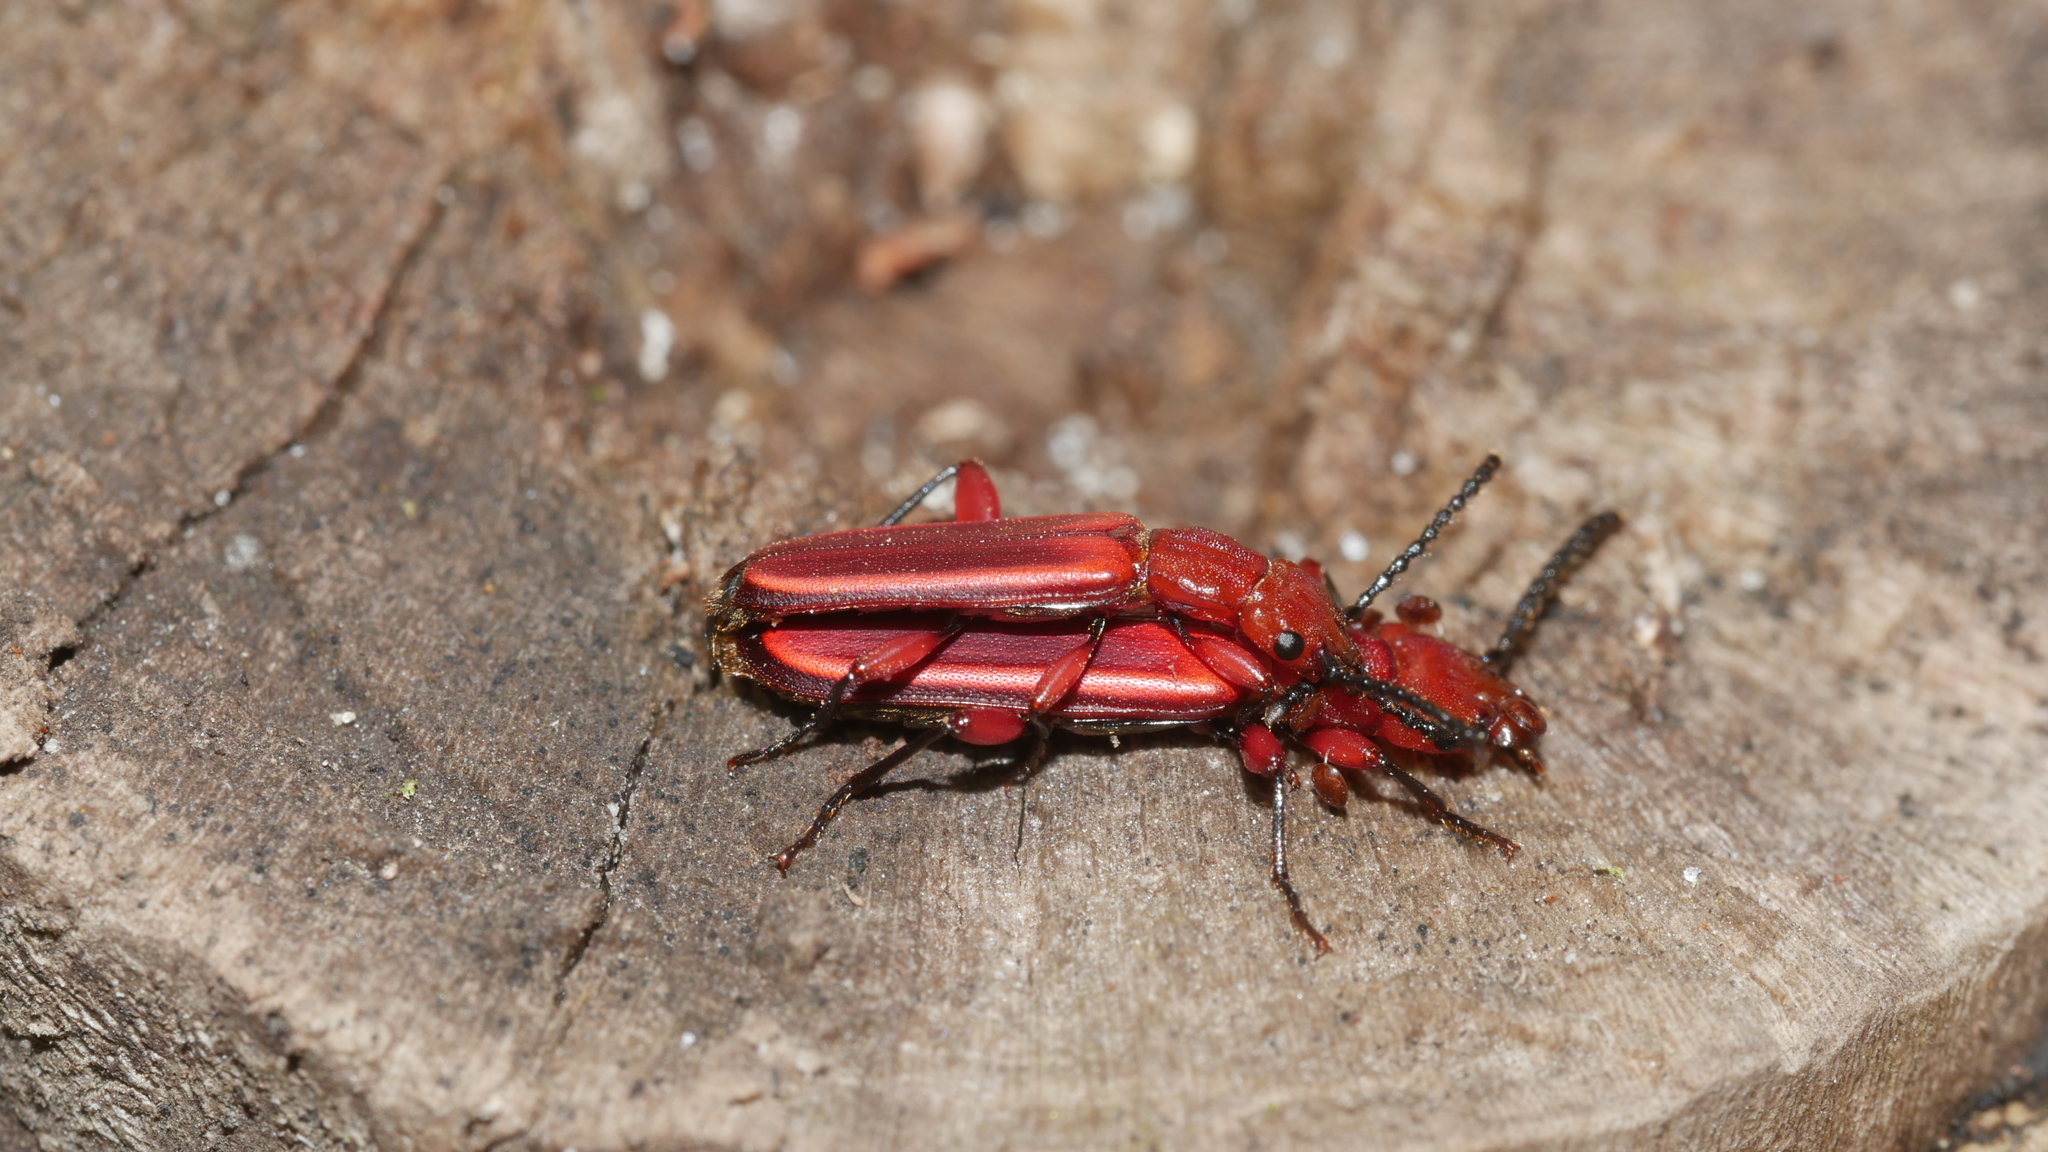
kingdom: Animalia
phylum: Arthropoda
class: Insecta
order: Coleoptera
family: Cucujidae
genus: Cucujus
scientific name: Cucujus clavipes
